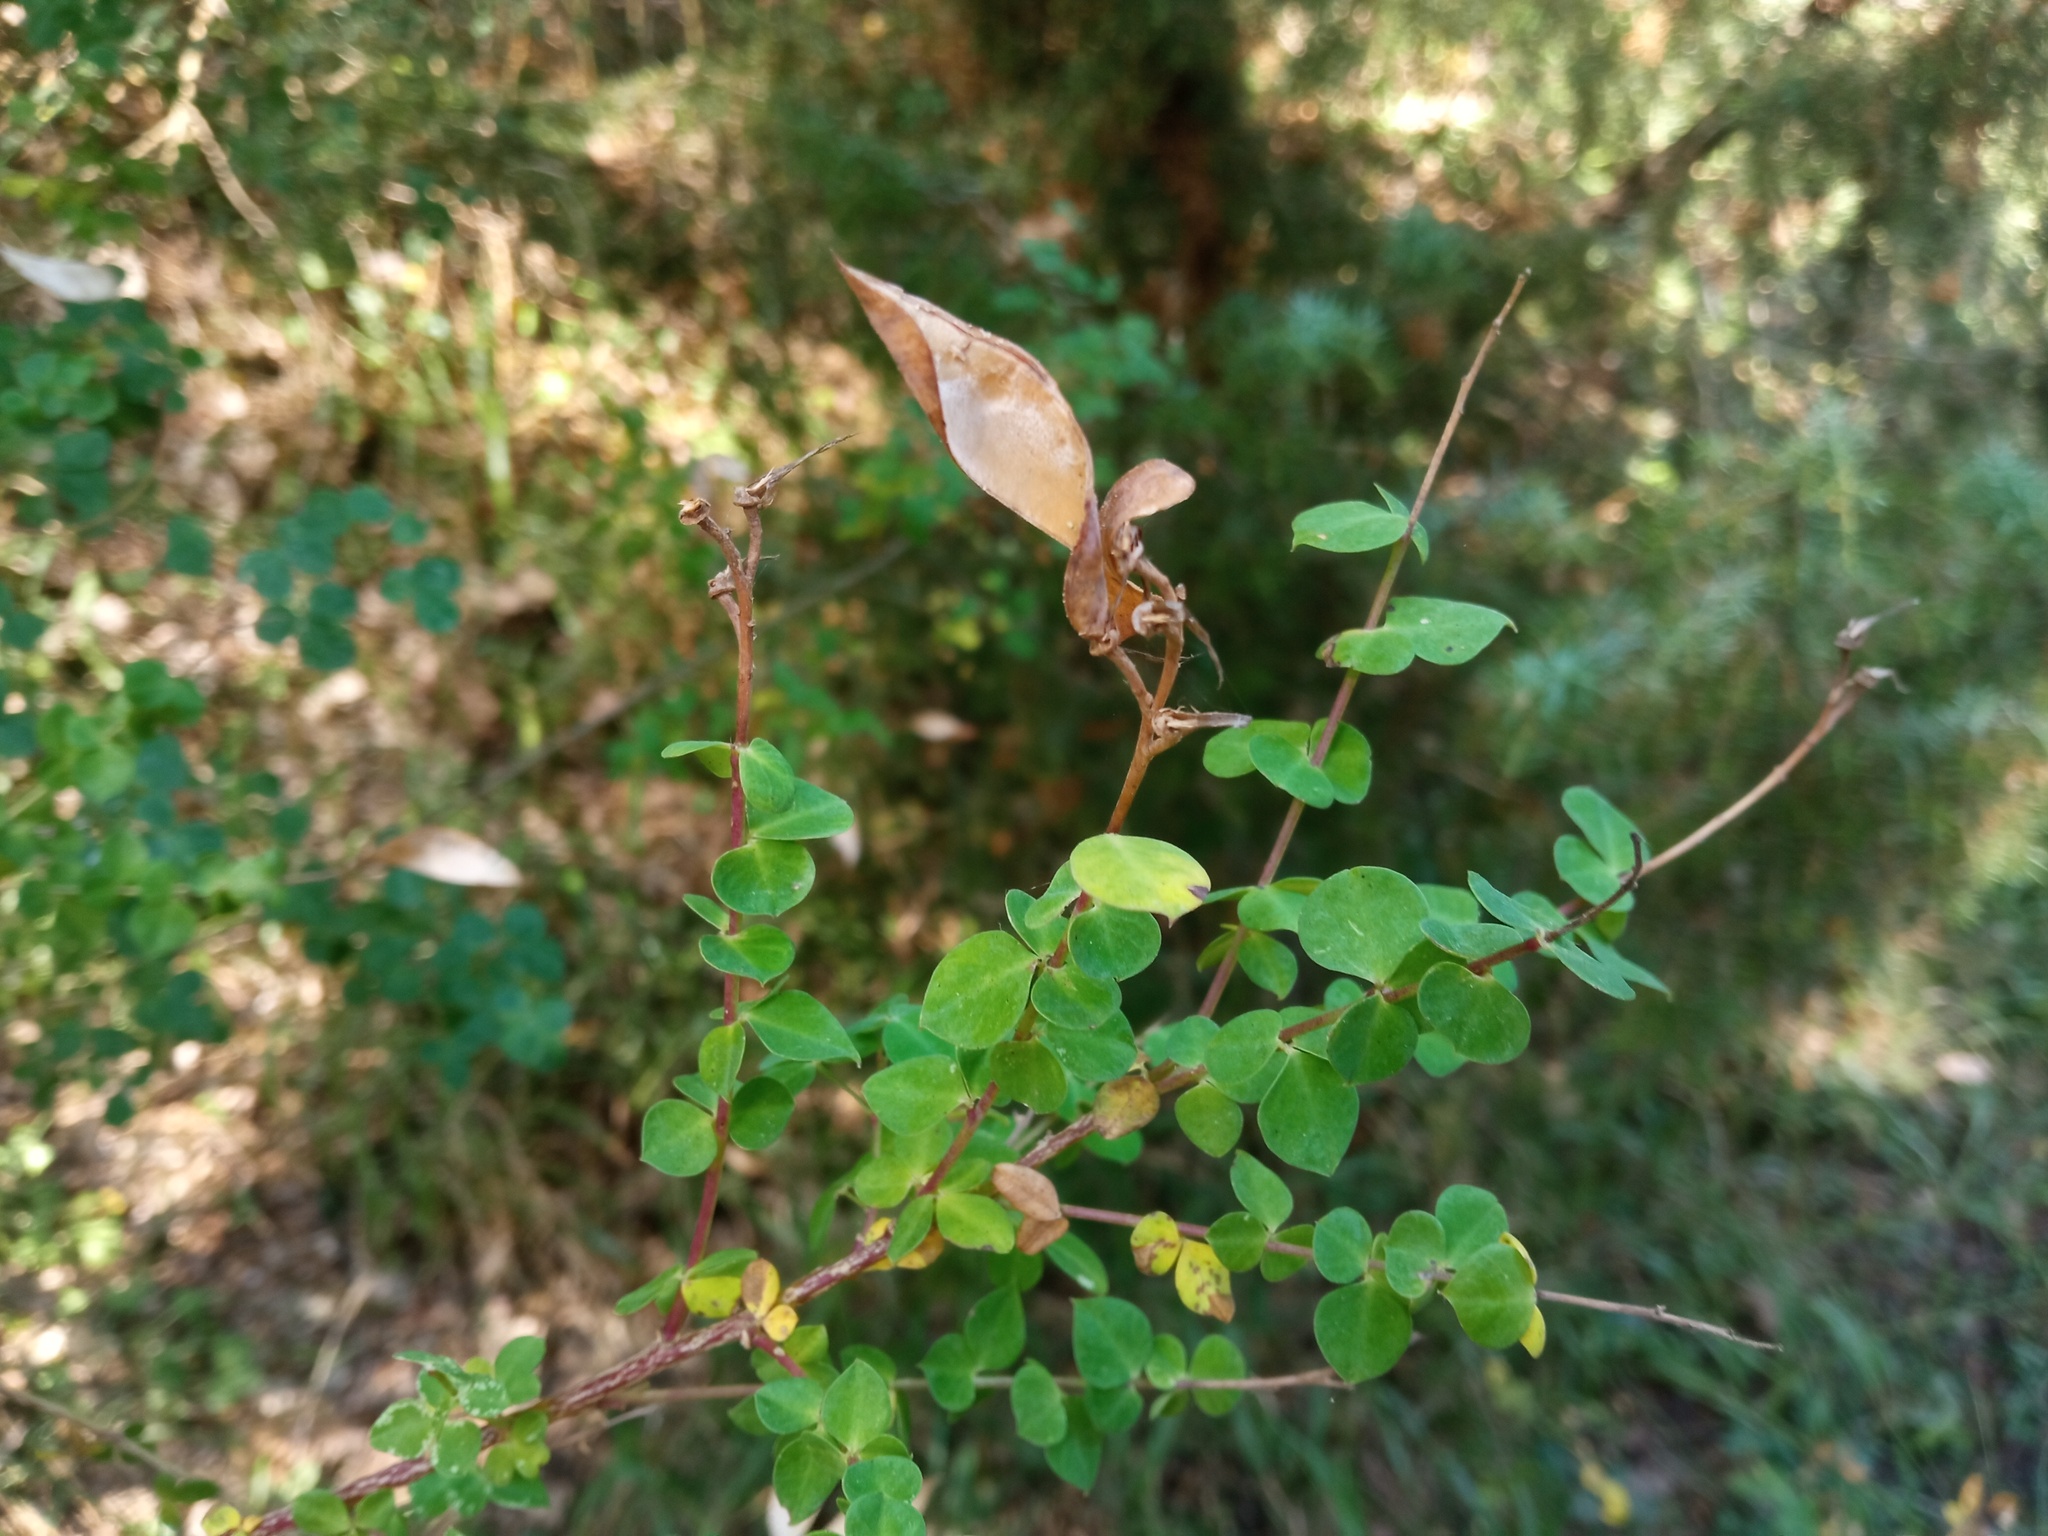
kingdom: Plantae
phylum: Tracheophyta
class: Magnoliopsida
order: Fabales
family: Fabaceae
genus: Cytisophyllum
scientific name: Cytisophyllum sessilifolium
